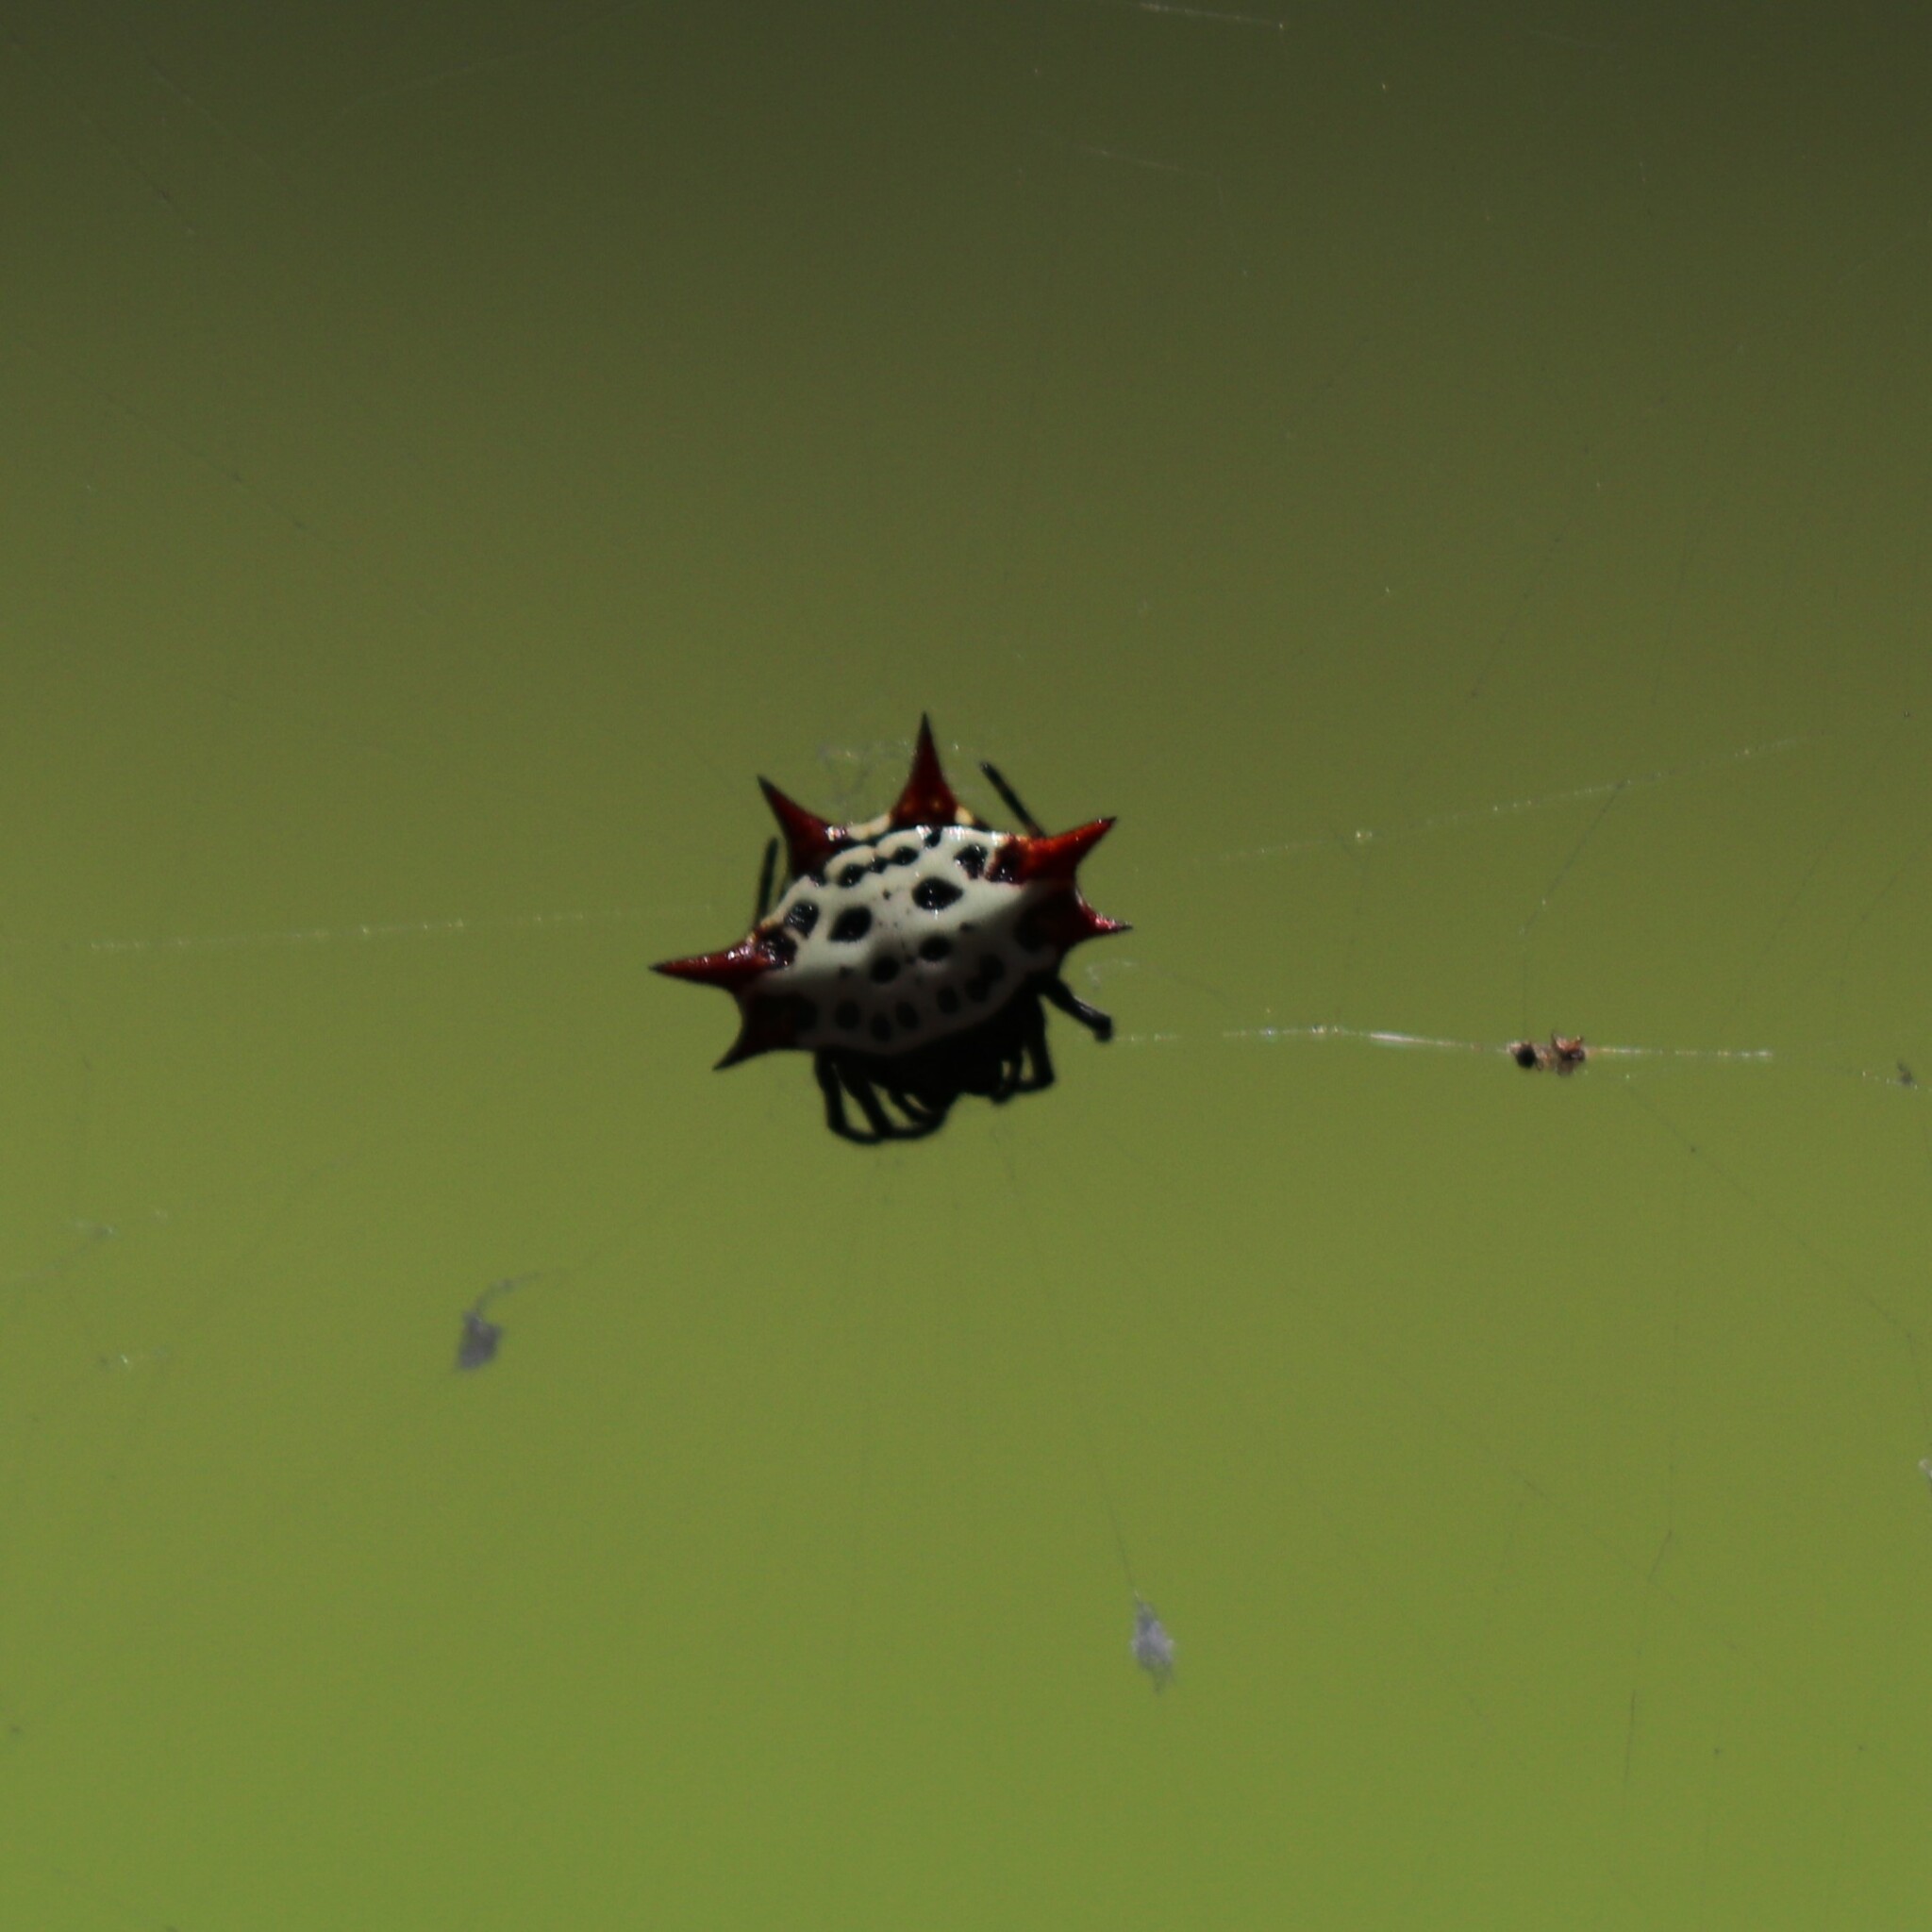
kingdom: Animalia
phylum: Arthropoda
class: Arachnida
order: Araneae
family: Araneidae
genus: Gasteracantha
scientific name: Gasteracantha cancriformis
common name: Orb weavers
